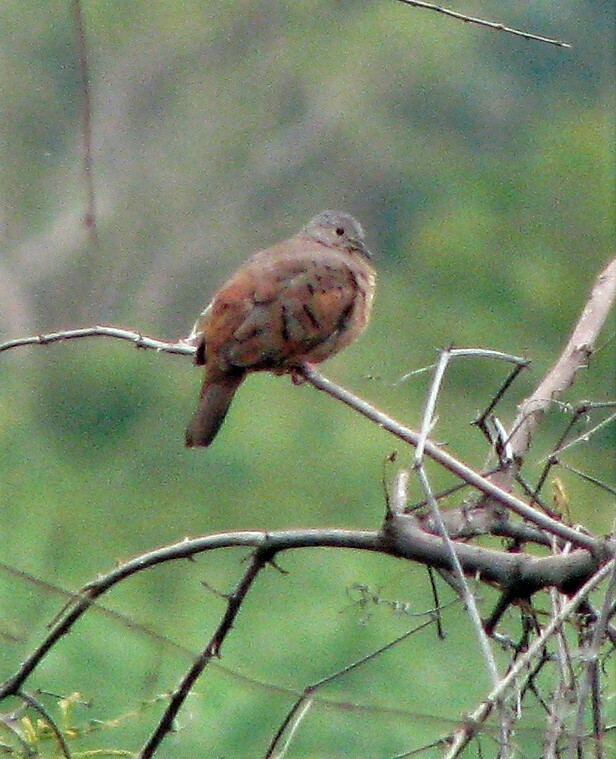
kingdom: Animalia
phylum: Chordata
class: Aves
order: Columbiformes
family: Columbidae
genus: Columbina
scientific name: Columbina talpacoti
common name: Ruddy ground dove
